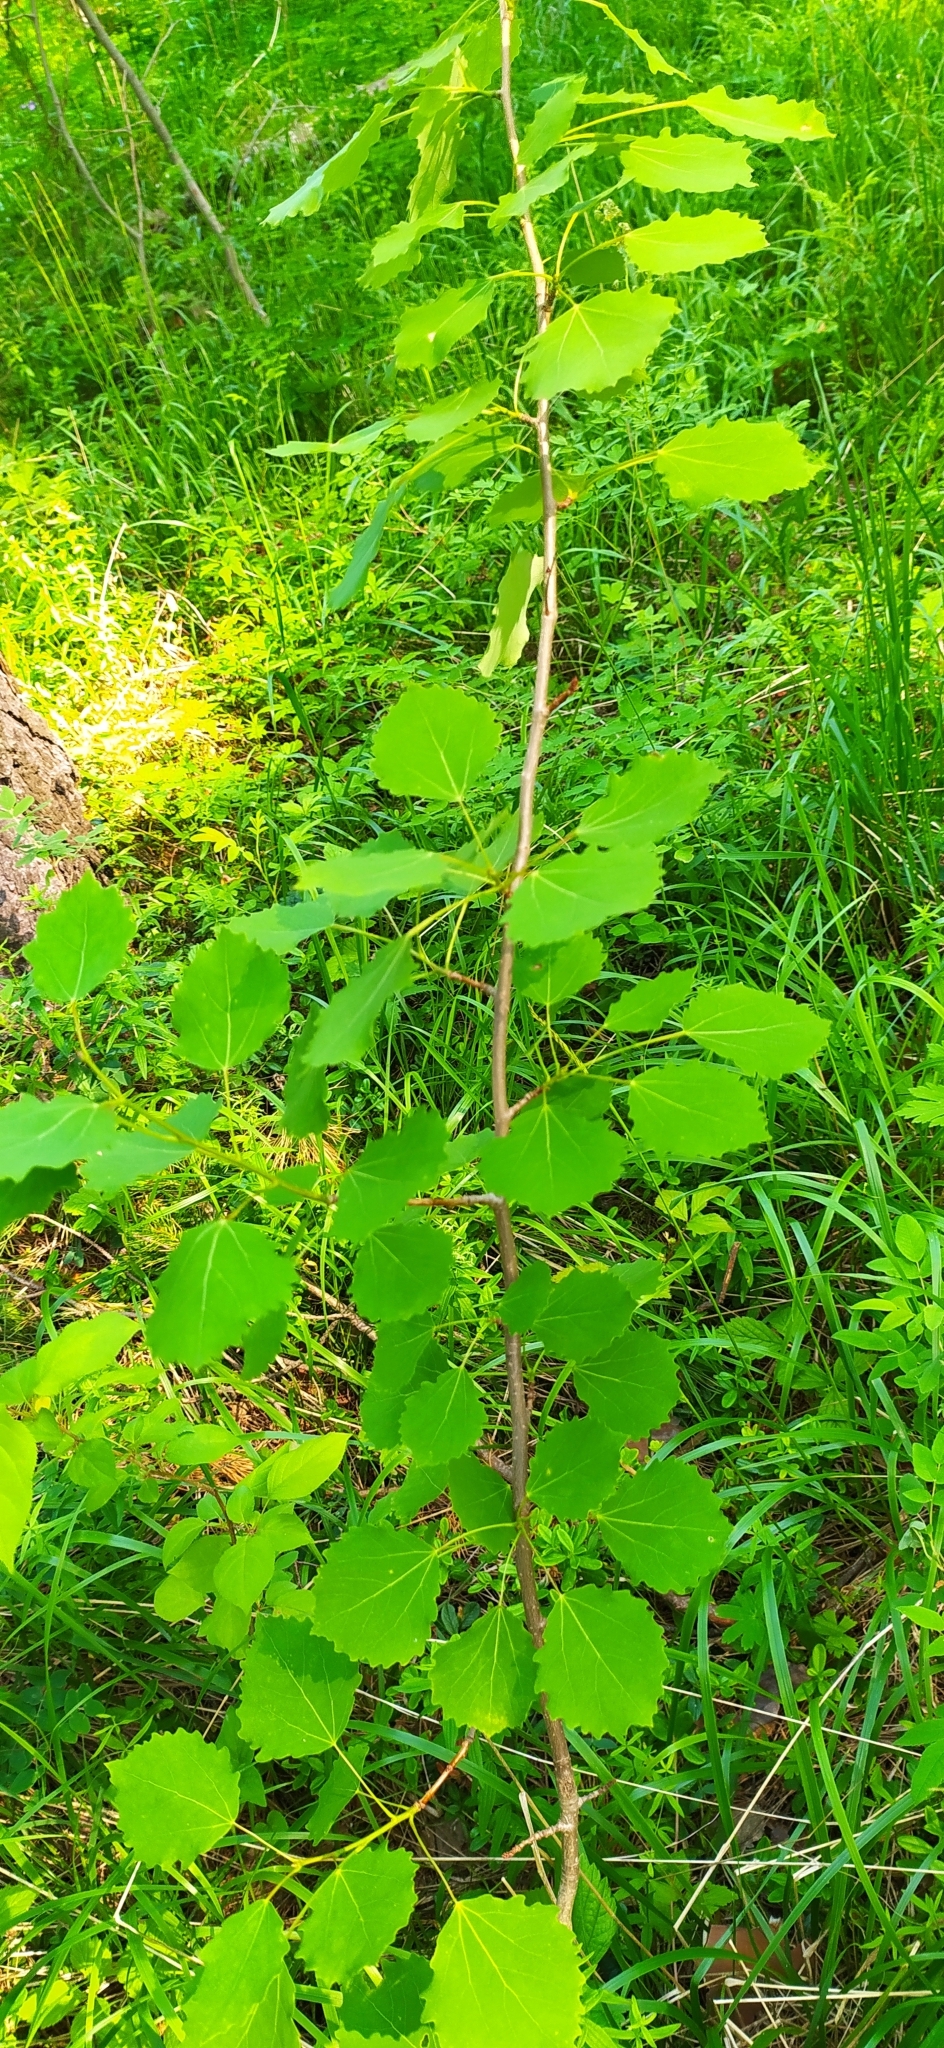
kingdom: Plantae
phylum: Tracheophyta
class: Magnoliopsida
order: Malpighiales
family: Salicaceae
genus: Populus
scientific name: Populus tremula
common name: European aspen
